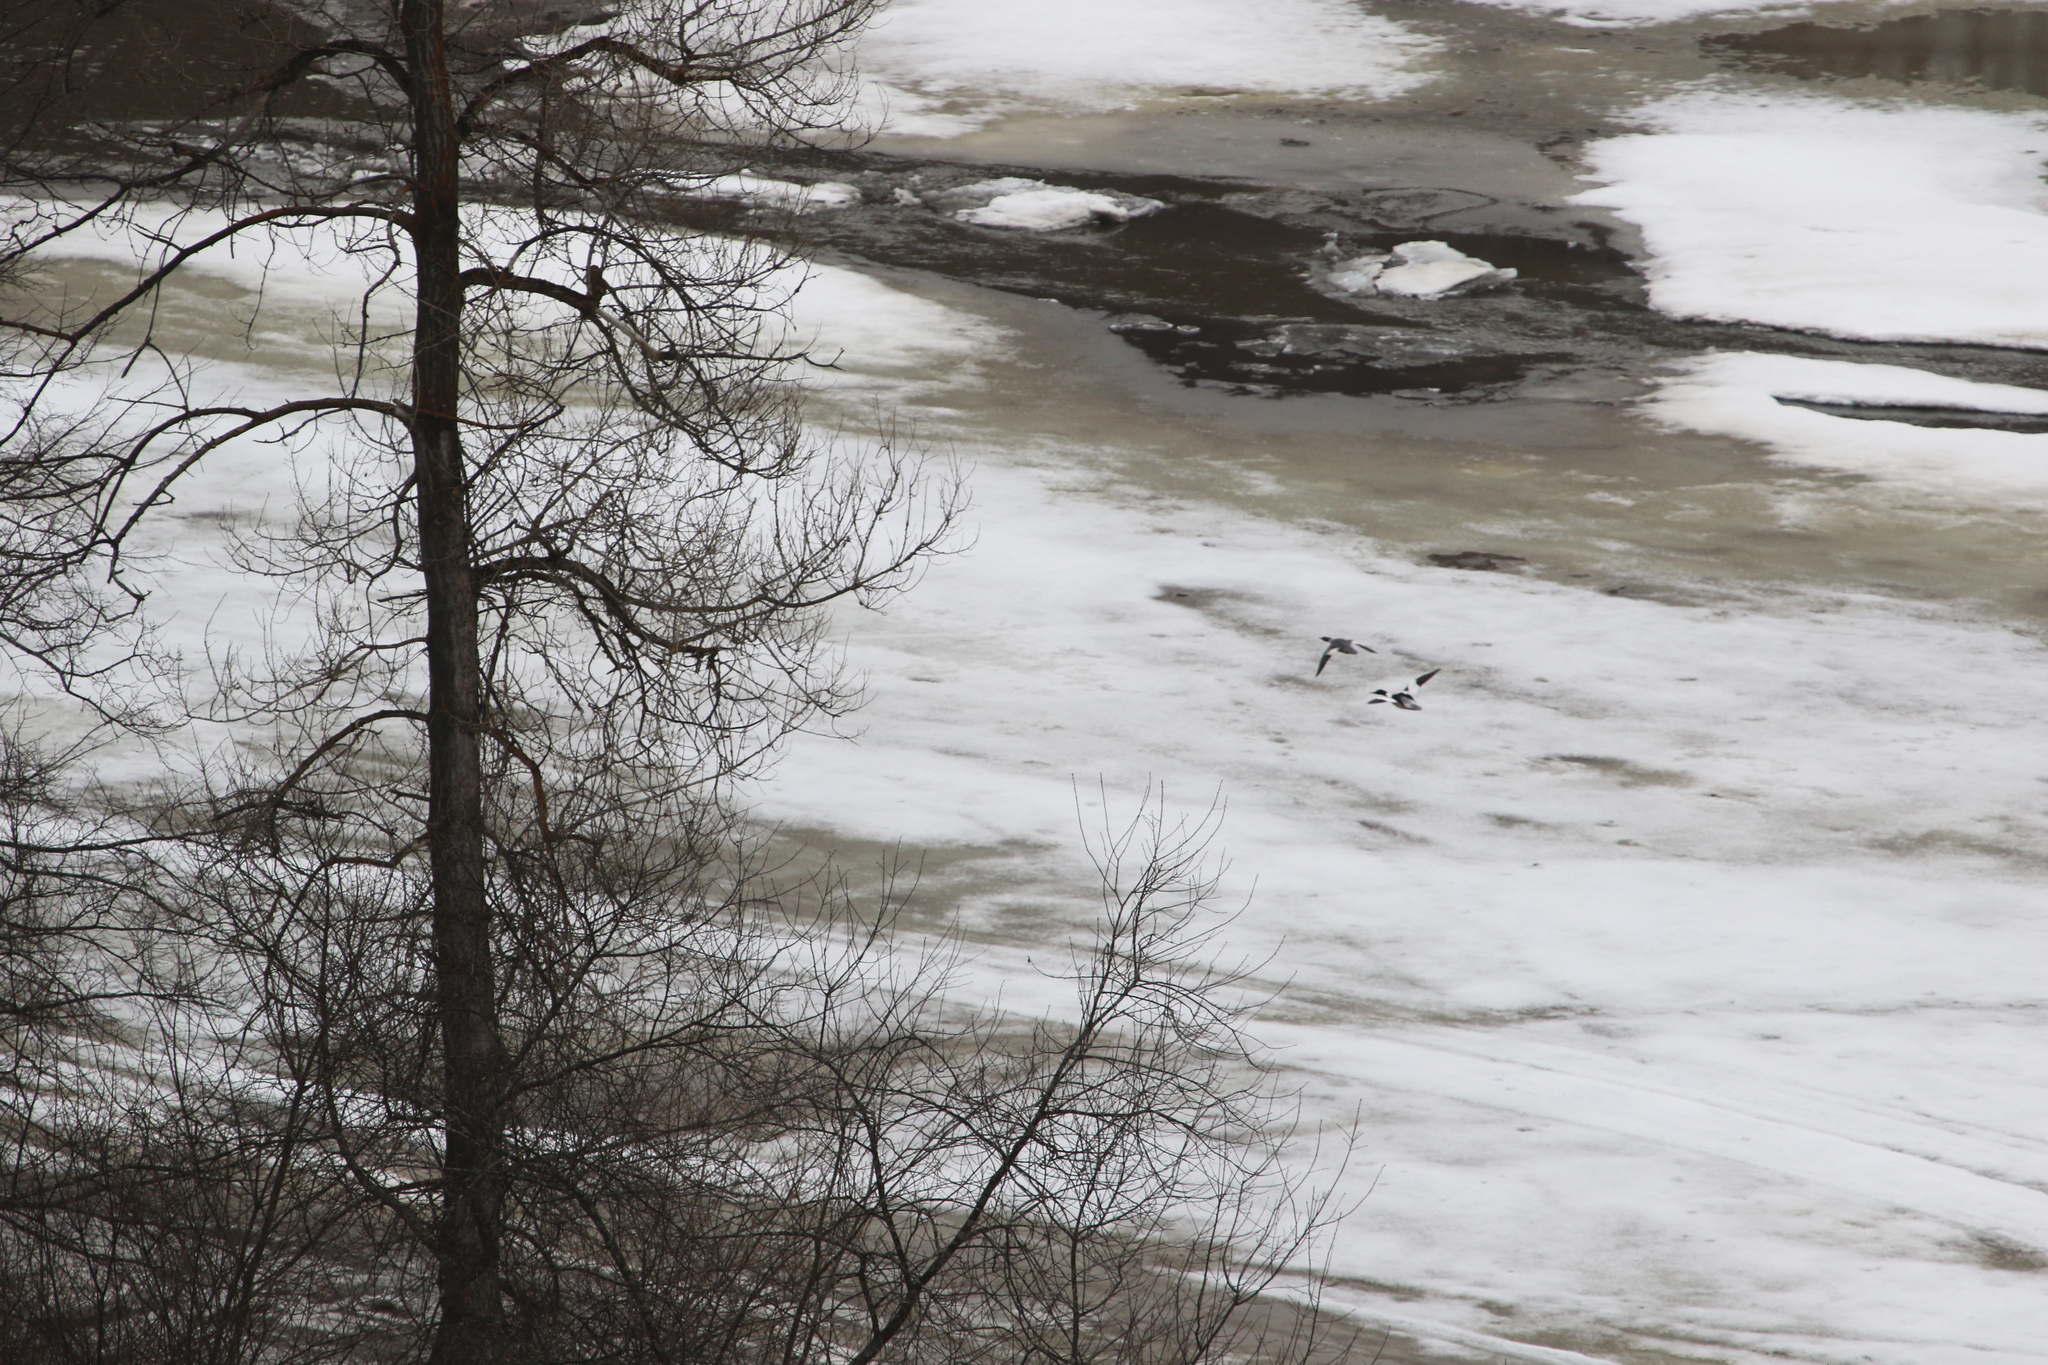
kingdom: Animalia
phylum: Chordata
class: Aves
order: Anseriformes
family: Anatidae
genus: Mergus
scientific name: Mergus merganser
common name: Common merganser
